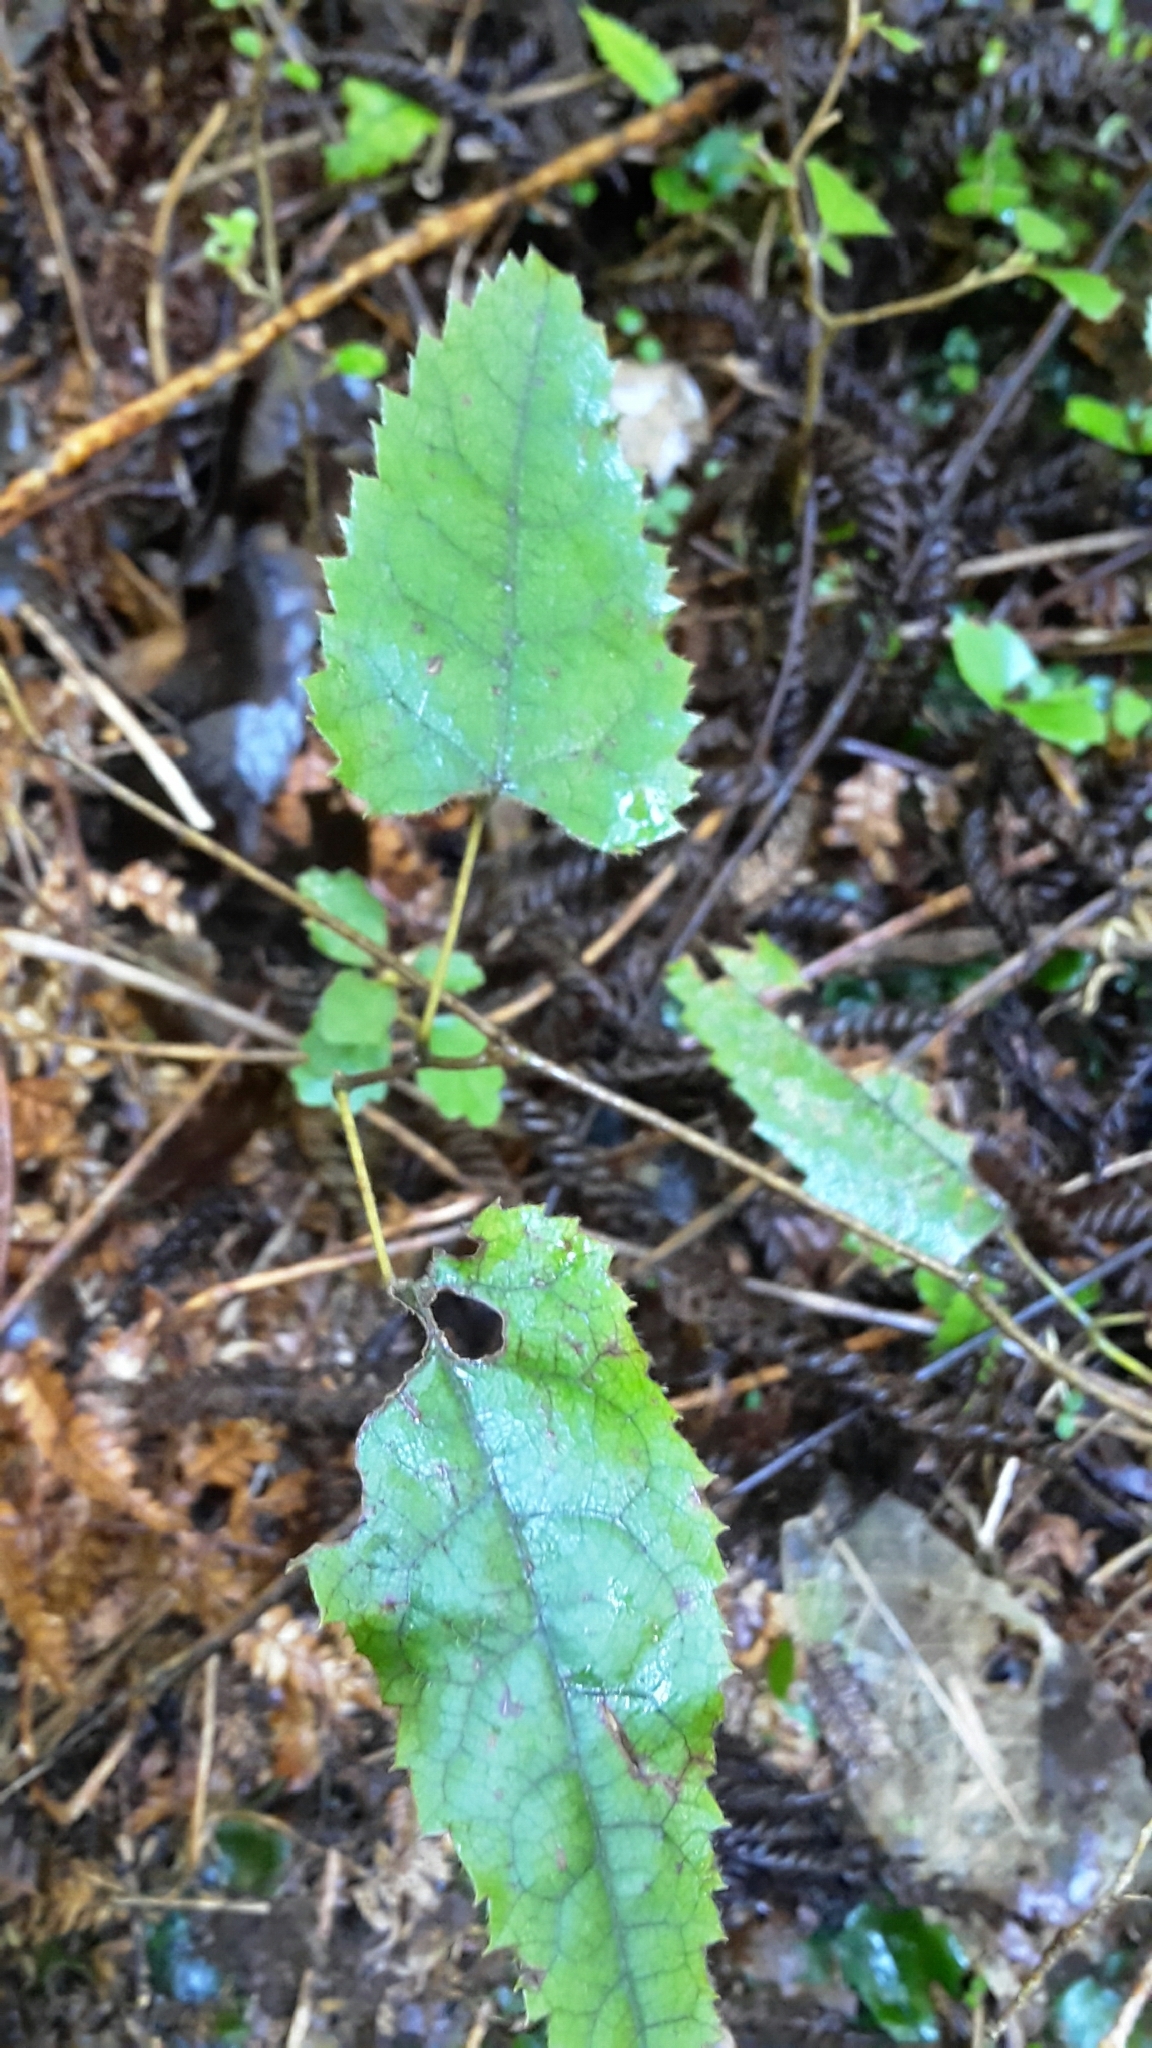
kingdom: Plantae
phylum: Tracheophyta
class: Magnoliopsida
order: Rosales
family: Rosaceae
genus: Rubus
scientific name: Rubus cissoides
